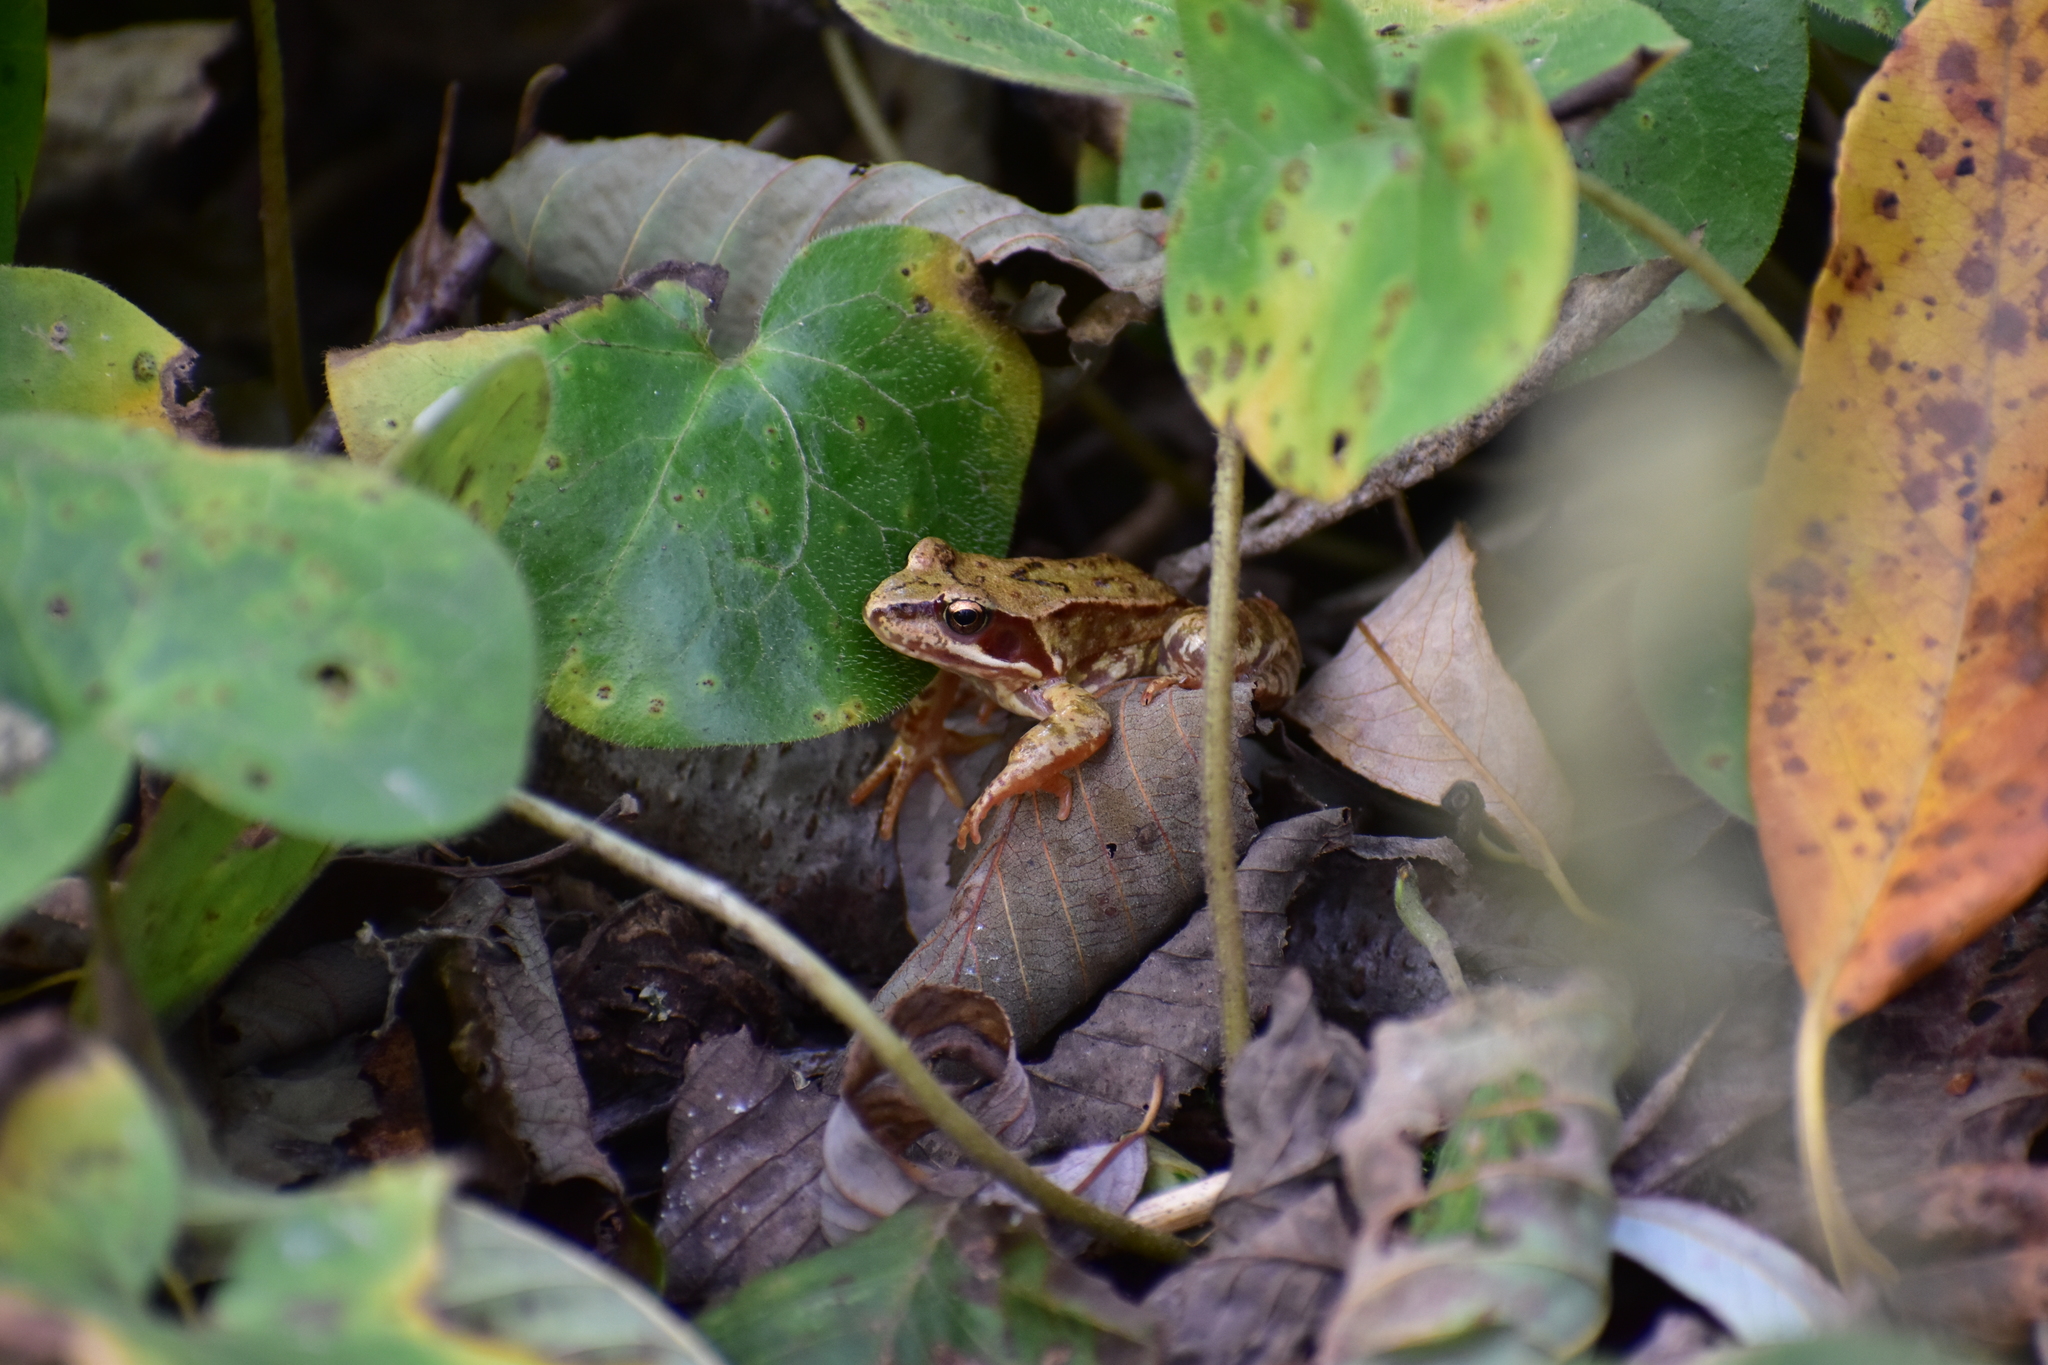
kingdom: Animalia
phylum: Chordata
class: Amphibia
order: Anura
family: Ranidae
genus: Rana
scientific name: Rana temporaria
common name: Common frog
